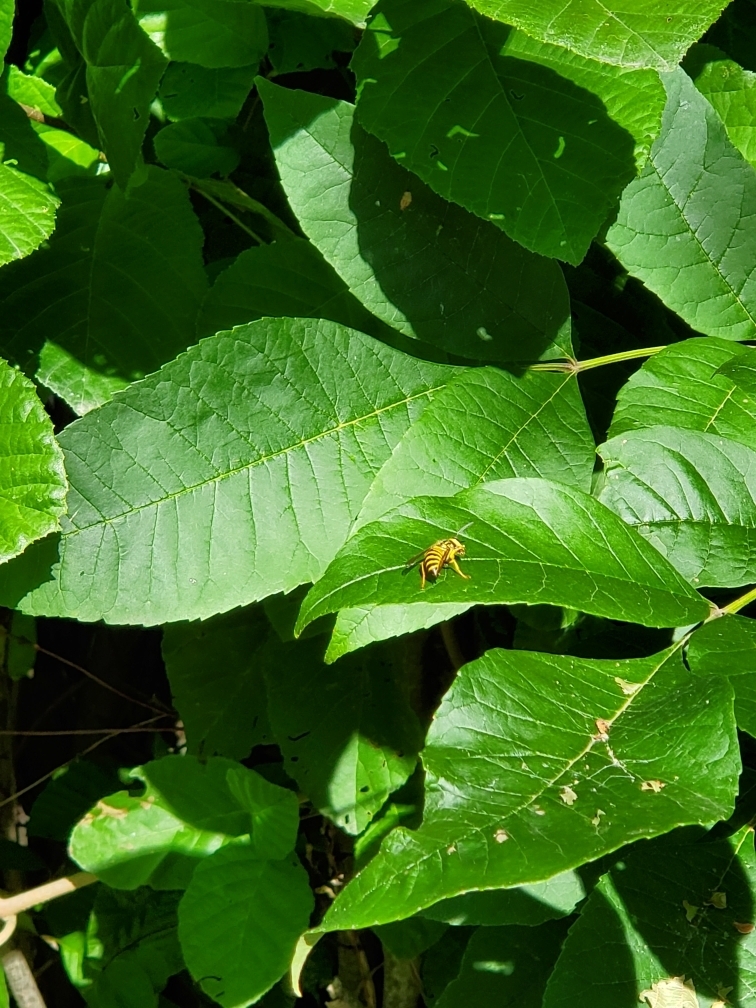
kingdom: Animalia
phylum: Arthropoda
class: Insecta
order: Hymenoptera
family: Vespidae
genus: Vespula
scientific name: Vespula squamosa
